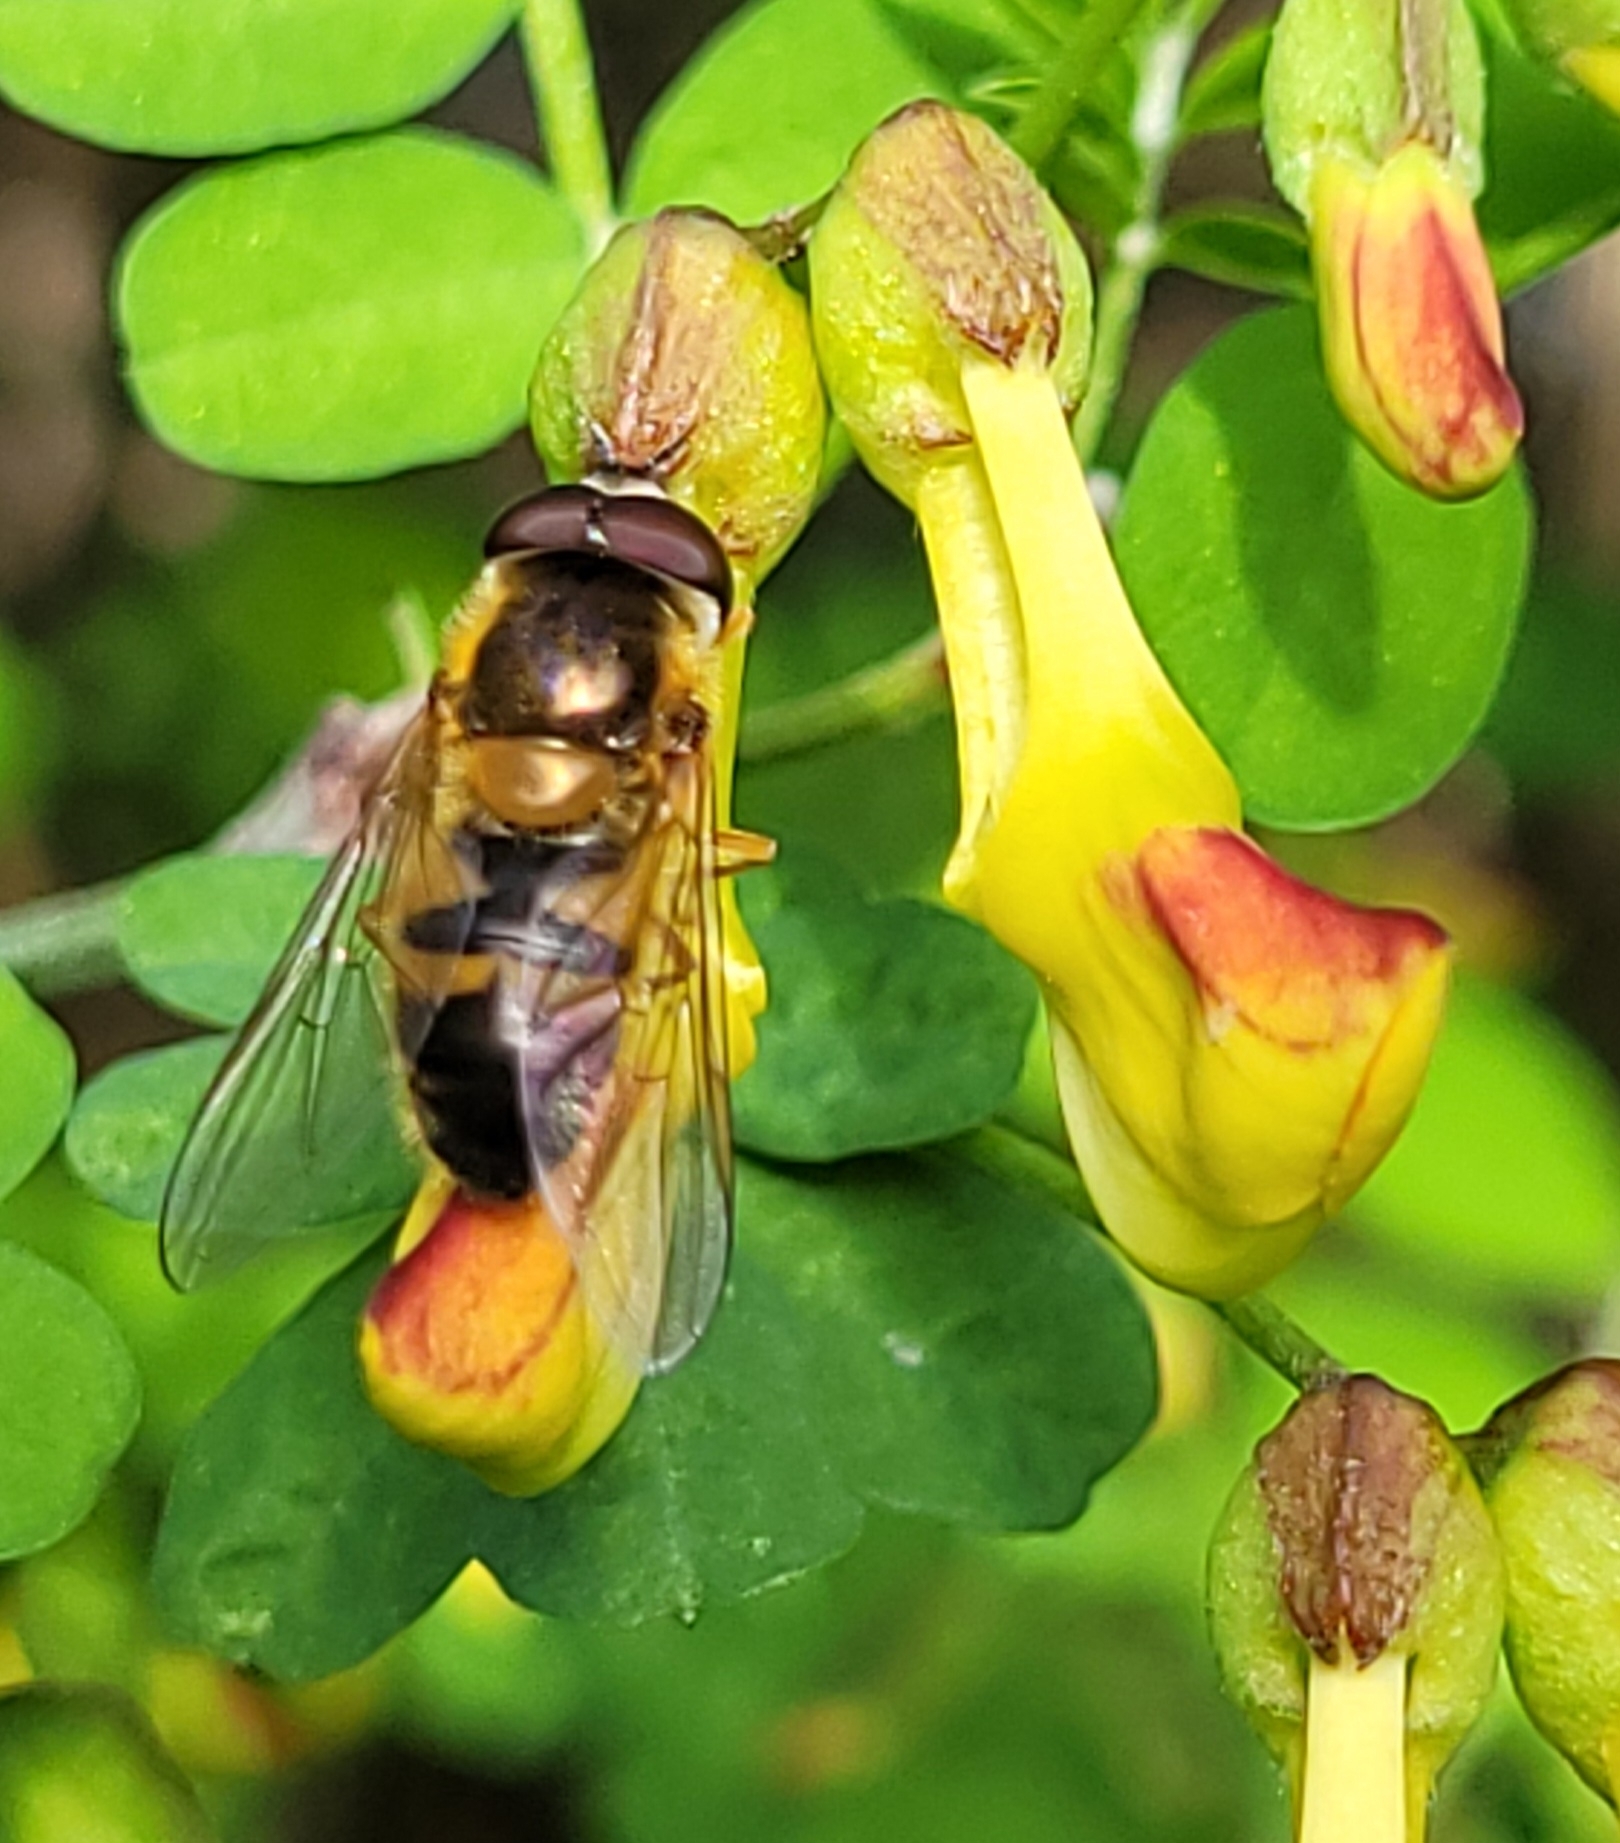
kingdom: Animalia
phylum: Arthropoda
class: Insecta
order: Diptera
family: Syrphidae
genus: Epistrophe
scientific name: Epistrophe eligans
